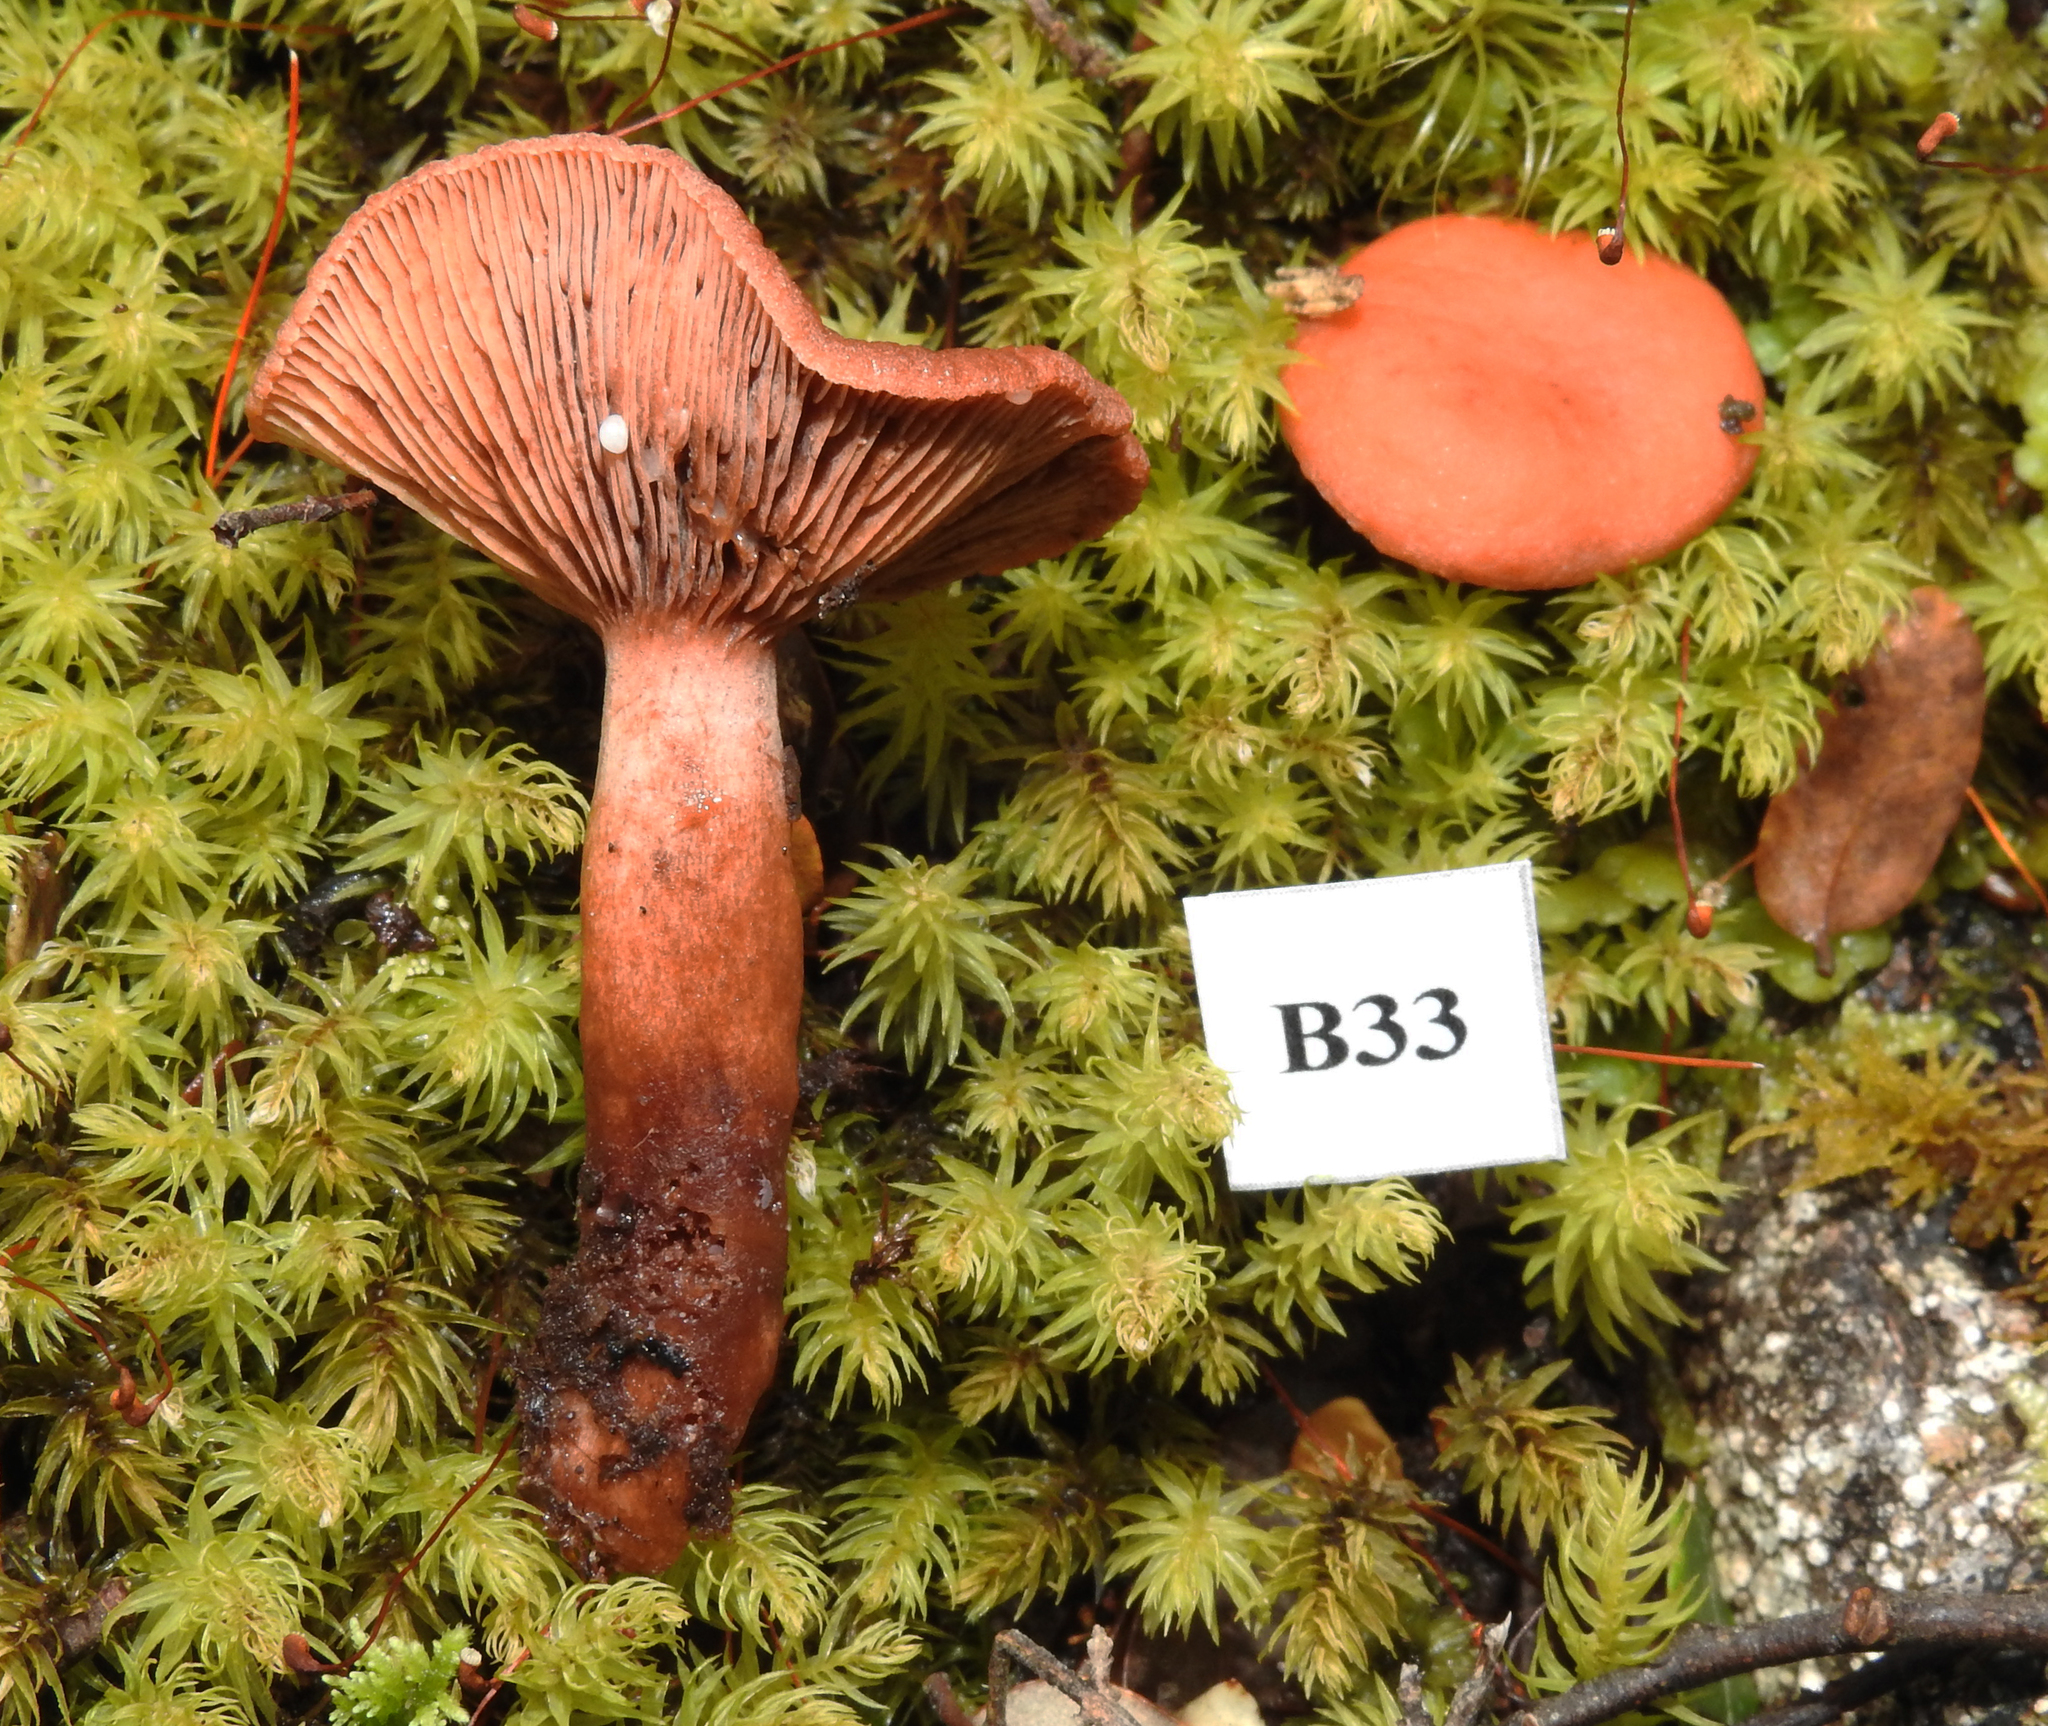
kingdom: Fungi
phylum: Basidiomycota
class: Agaricomycetes
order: Russulales
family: Russulaceae
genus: Lactarius
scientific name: Lactarius umerensis
